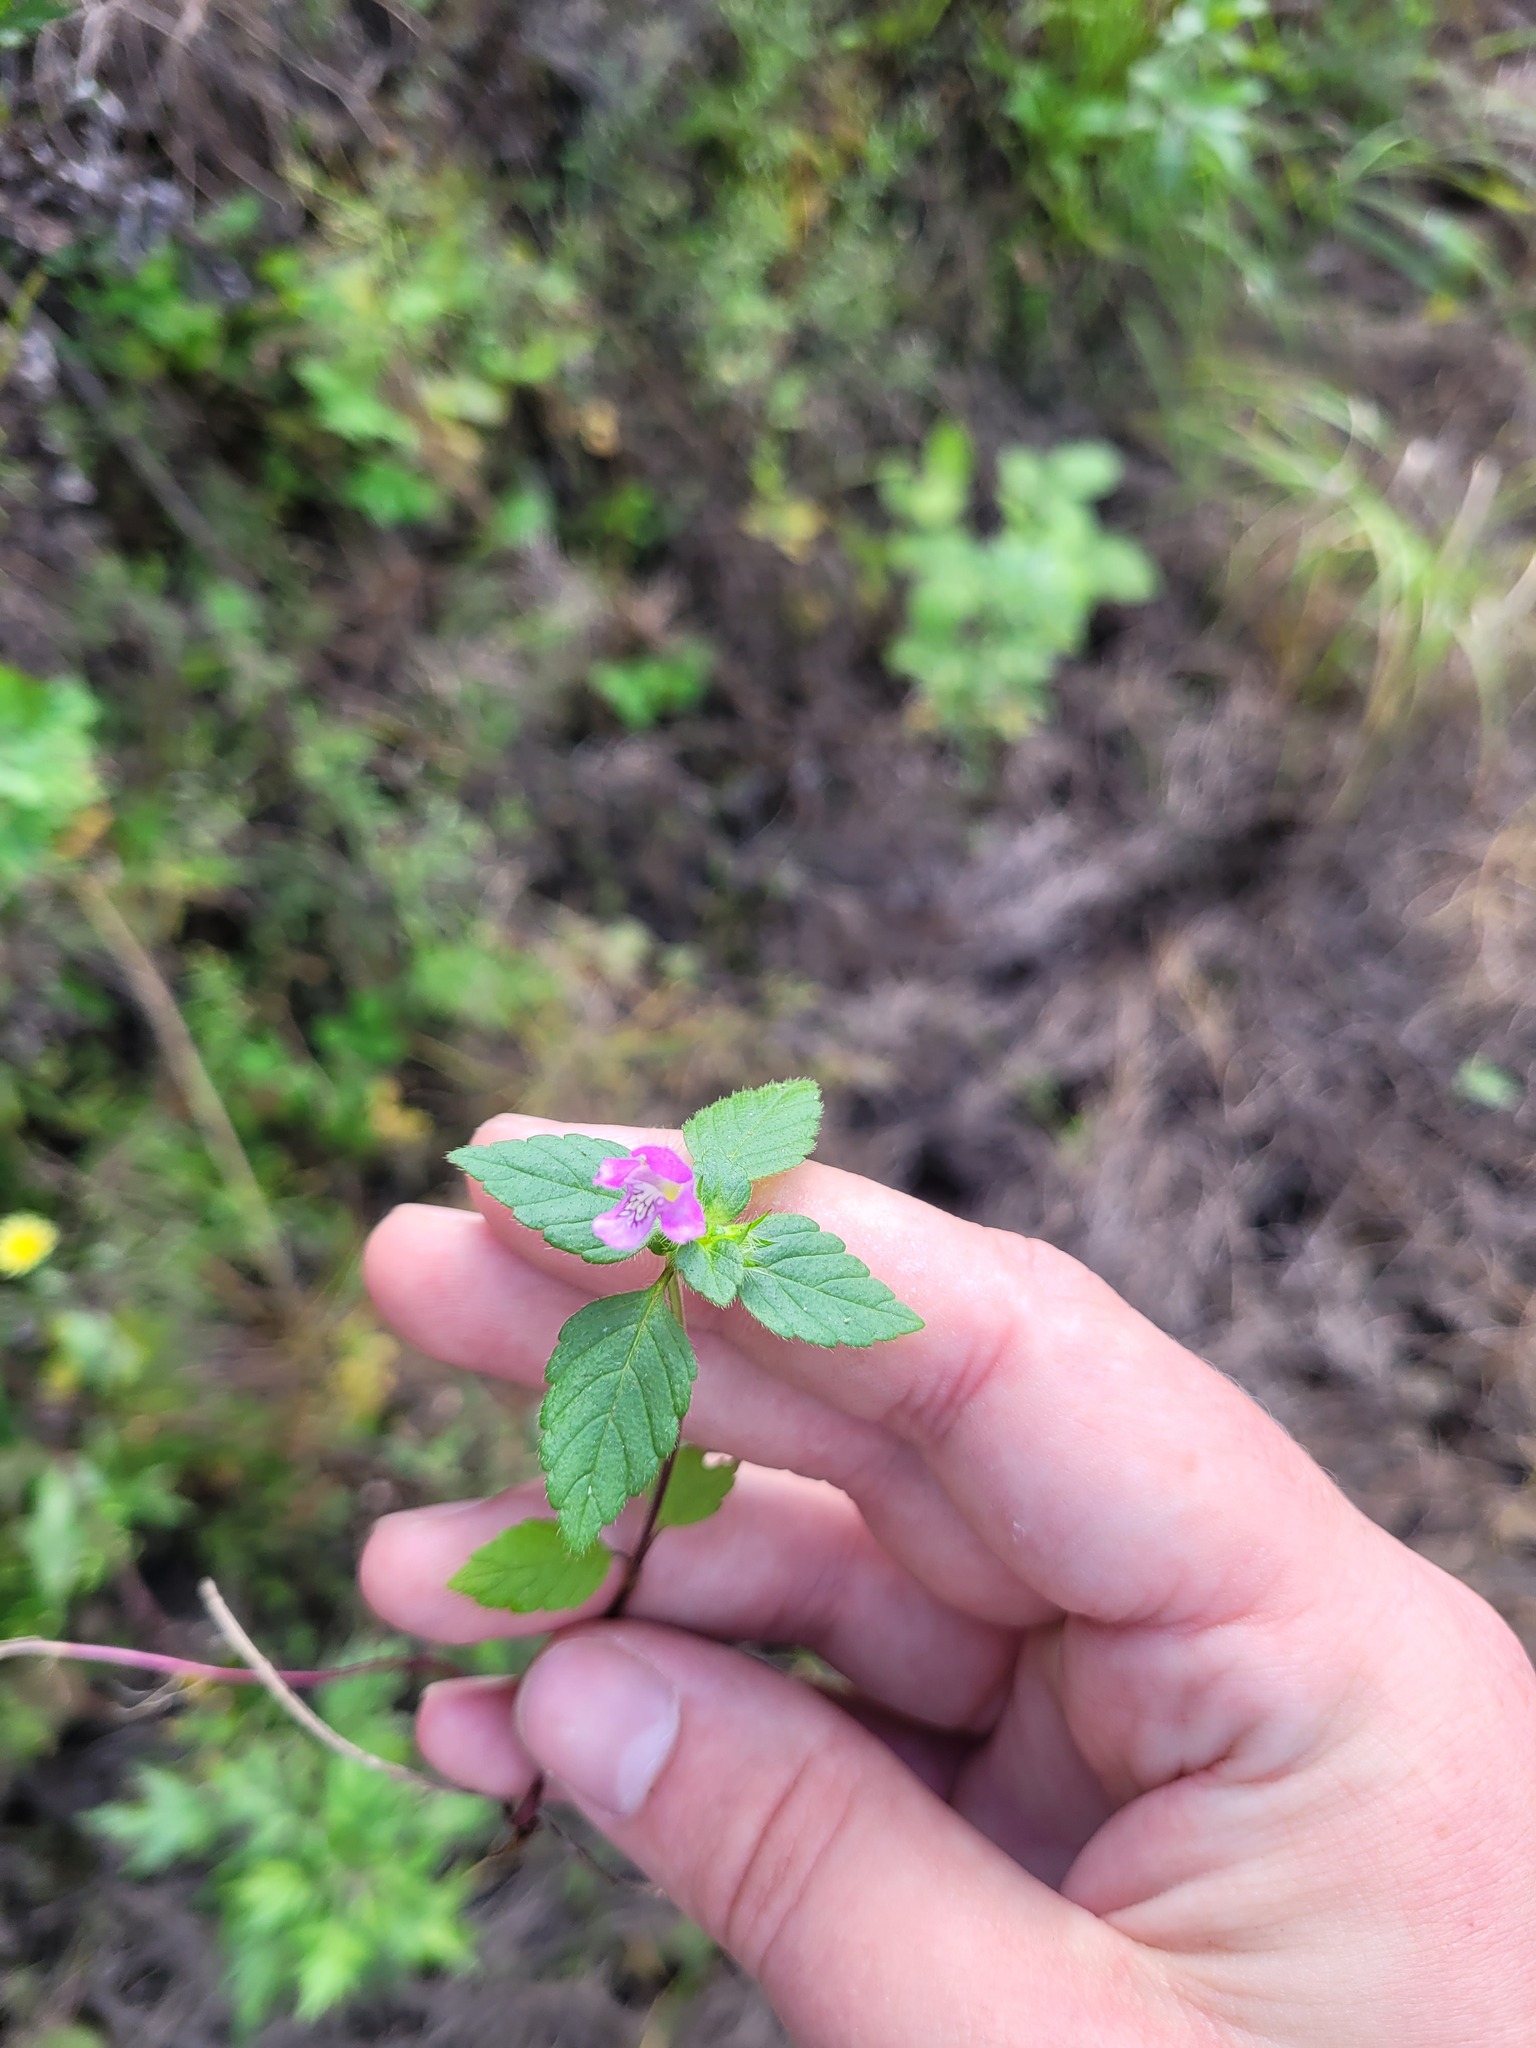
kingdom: Plantae
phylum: Tracheophyta
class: Magnoliopsida
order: Lamiales
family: Lamiaceae
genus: Galeopsis
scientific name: Galeopsis tetrahit
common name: Common hemp-nettle
